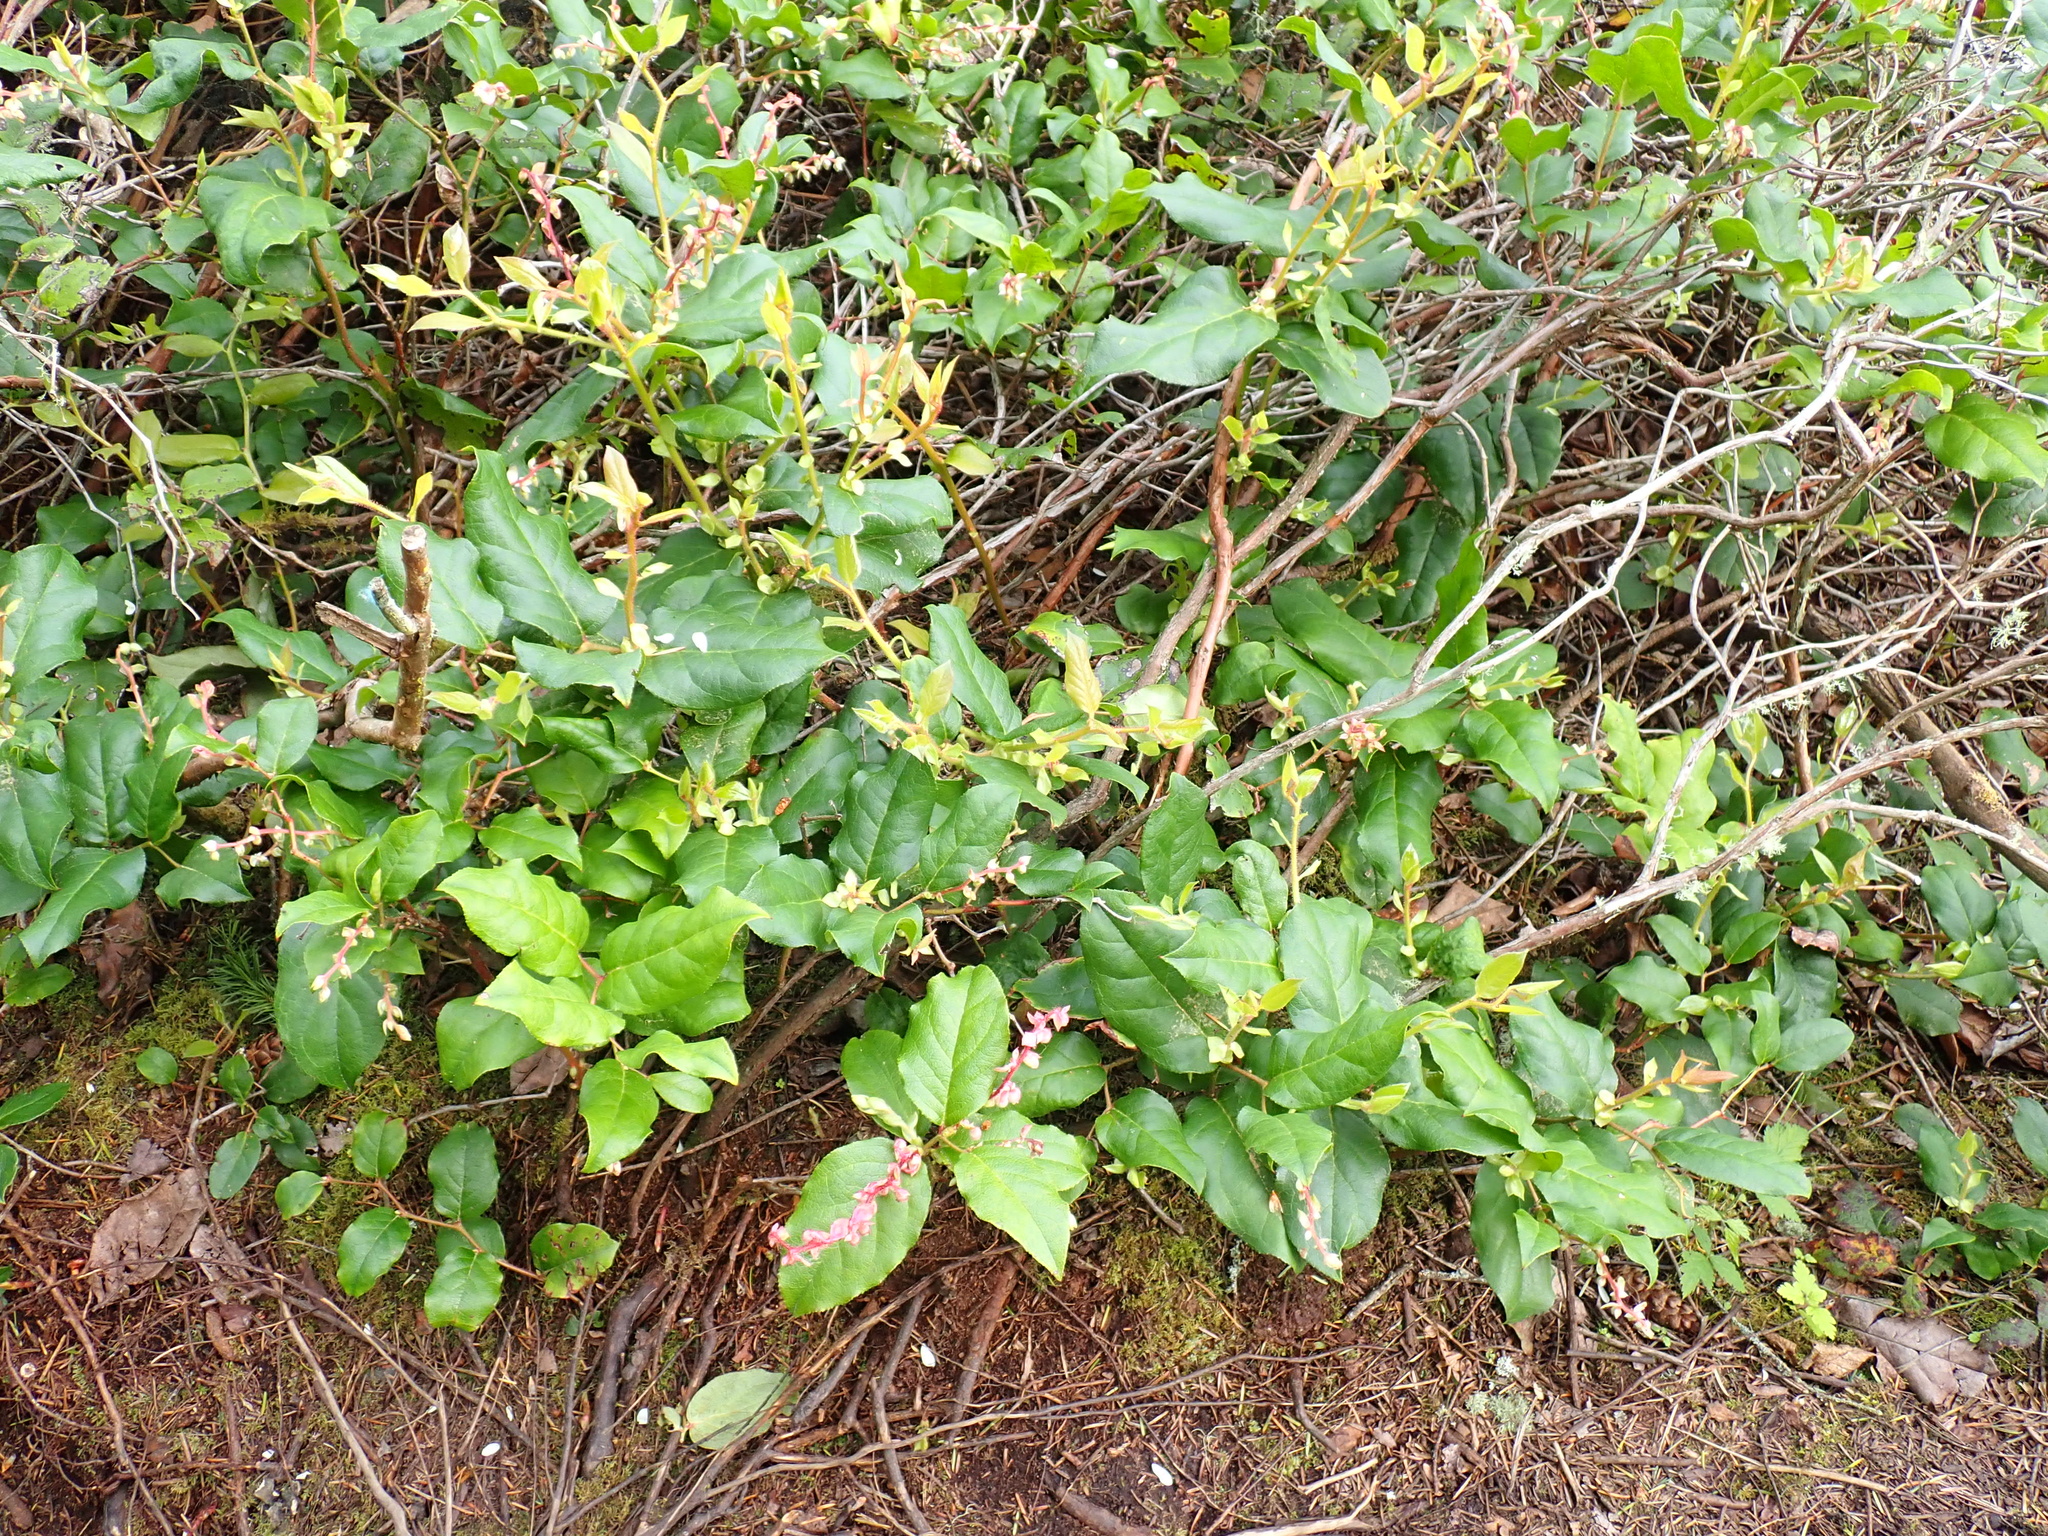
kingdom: Plantae
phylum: Tracheophyta
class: Magnoliopsida
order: Ericales
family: Ericaceae
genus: Gaultheria
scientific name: Gaultheria shallon
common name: Shallon
